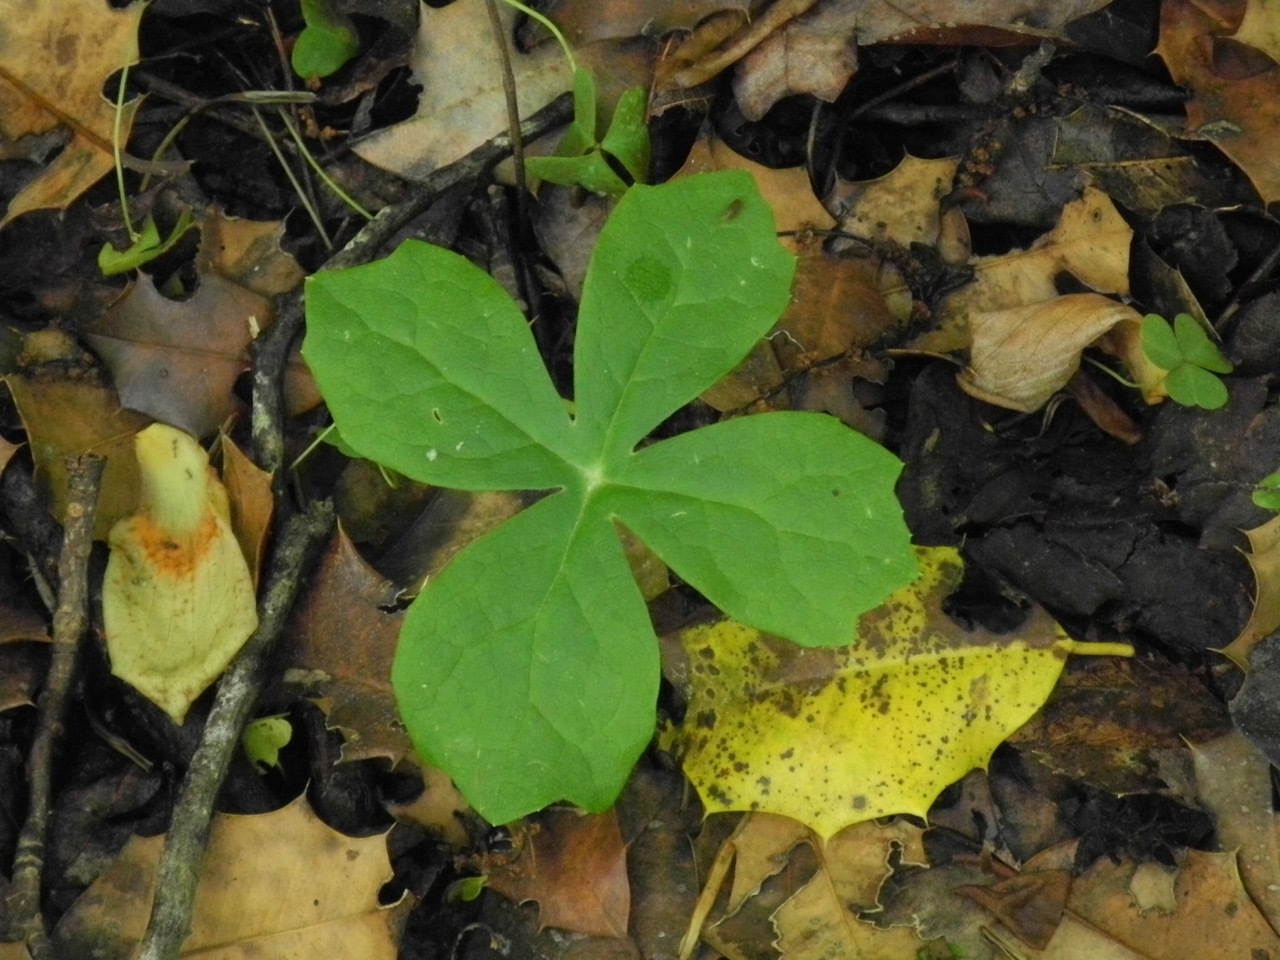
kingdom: Plantae
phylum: Tracheophyta
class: Magnoliopsida
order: Ranunculales
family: Berberidaceae
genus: Podophyllum
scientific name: Podophyllum peltatum
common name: Wild mandrake
